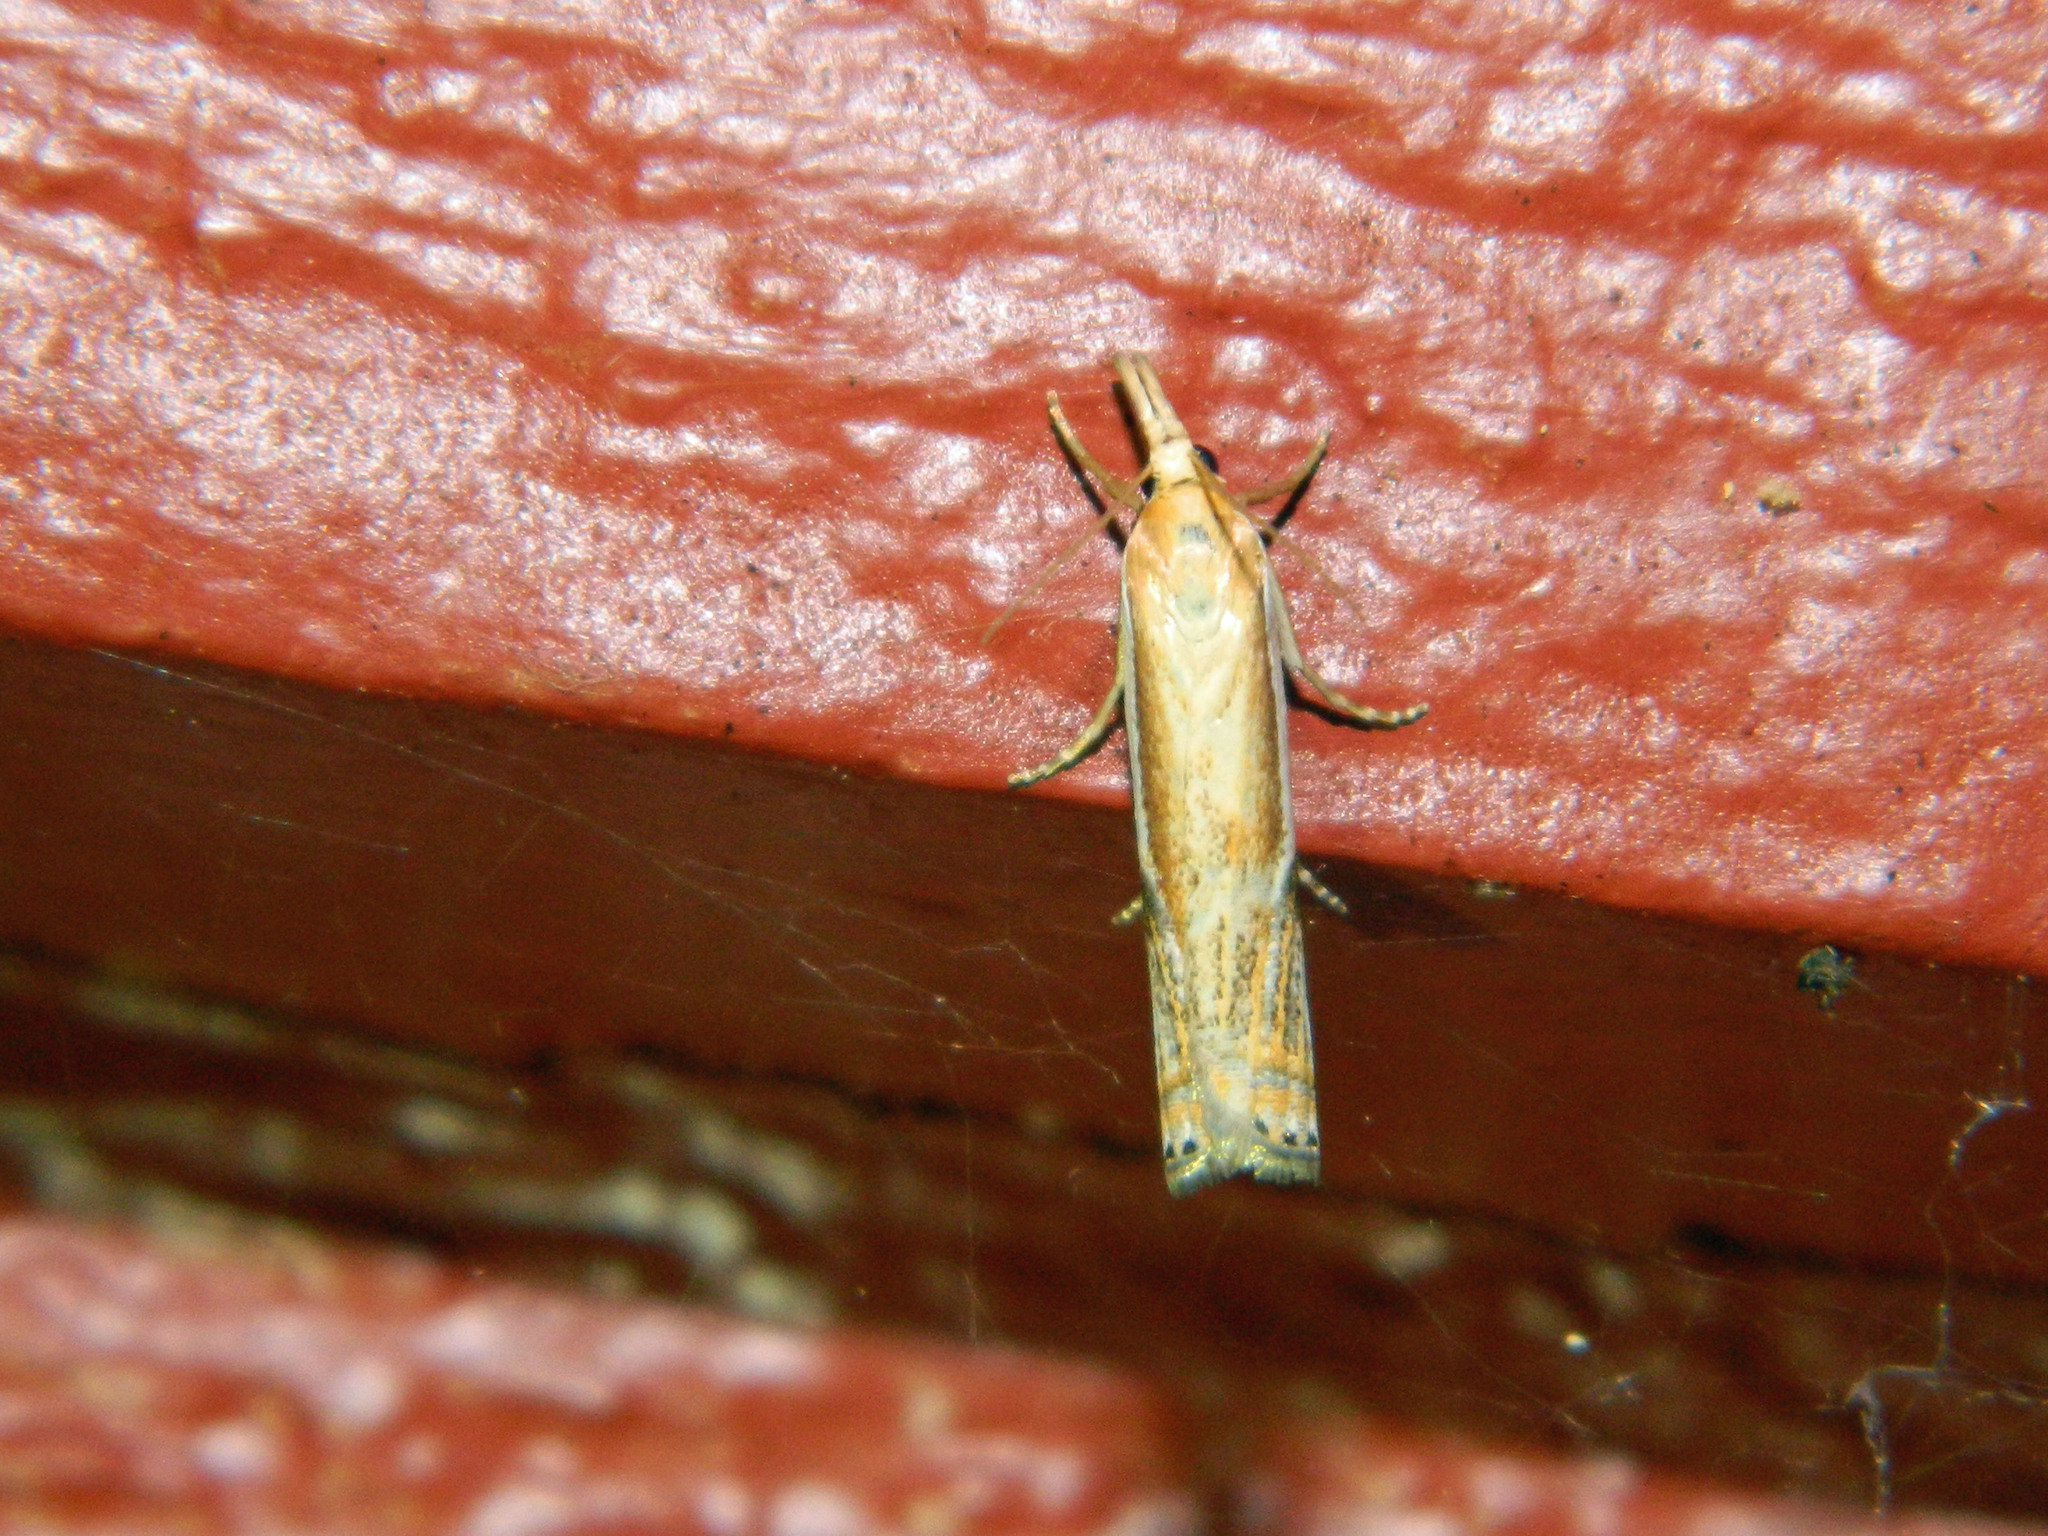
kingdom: Animalia
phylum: Arthropoda
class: Insecta
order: Lepidoptera
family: Crambidae
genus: Crambus
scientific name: Crambus agitatellus
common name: Double-banded grass-veneer
